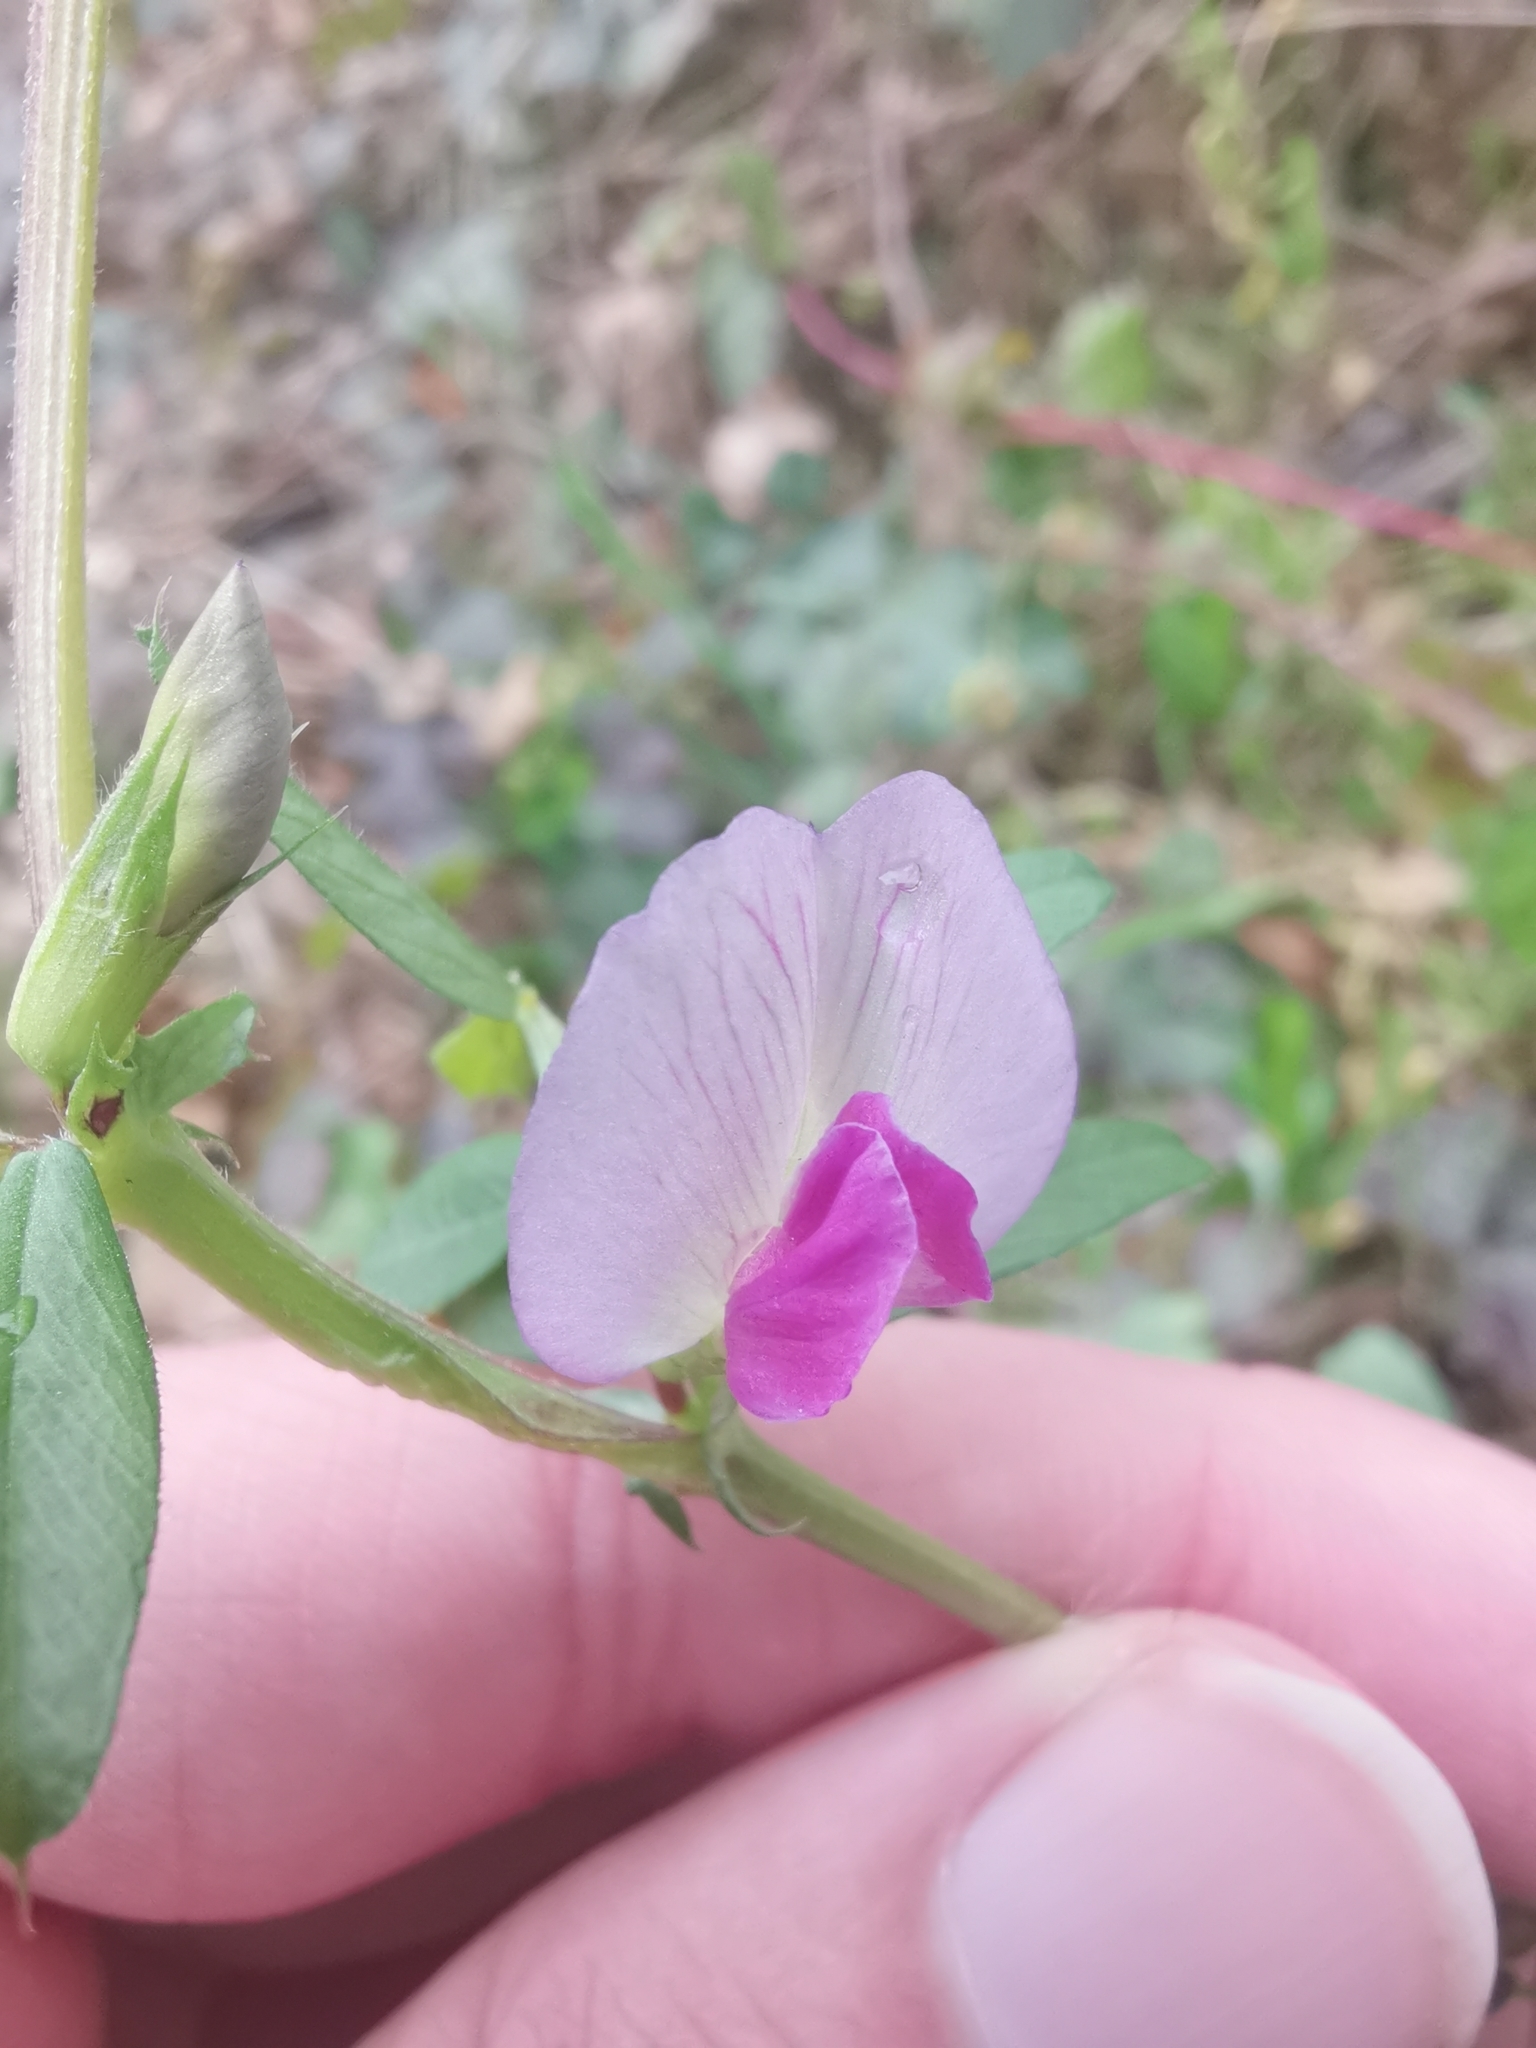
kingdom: Plantae
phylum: Tracheophyta
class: Magnoliopsida
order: Fabales
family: Fabaceae
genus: Vicia
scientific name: Vicia sativa
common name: Garden vetch
